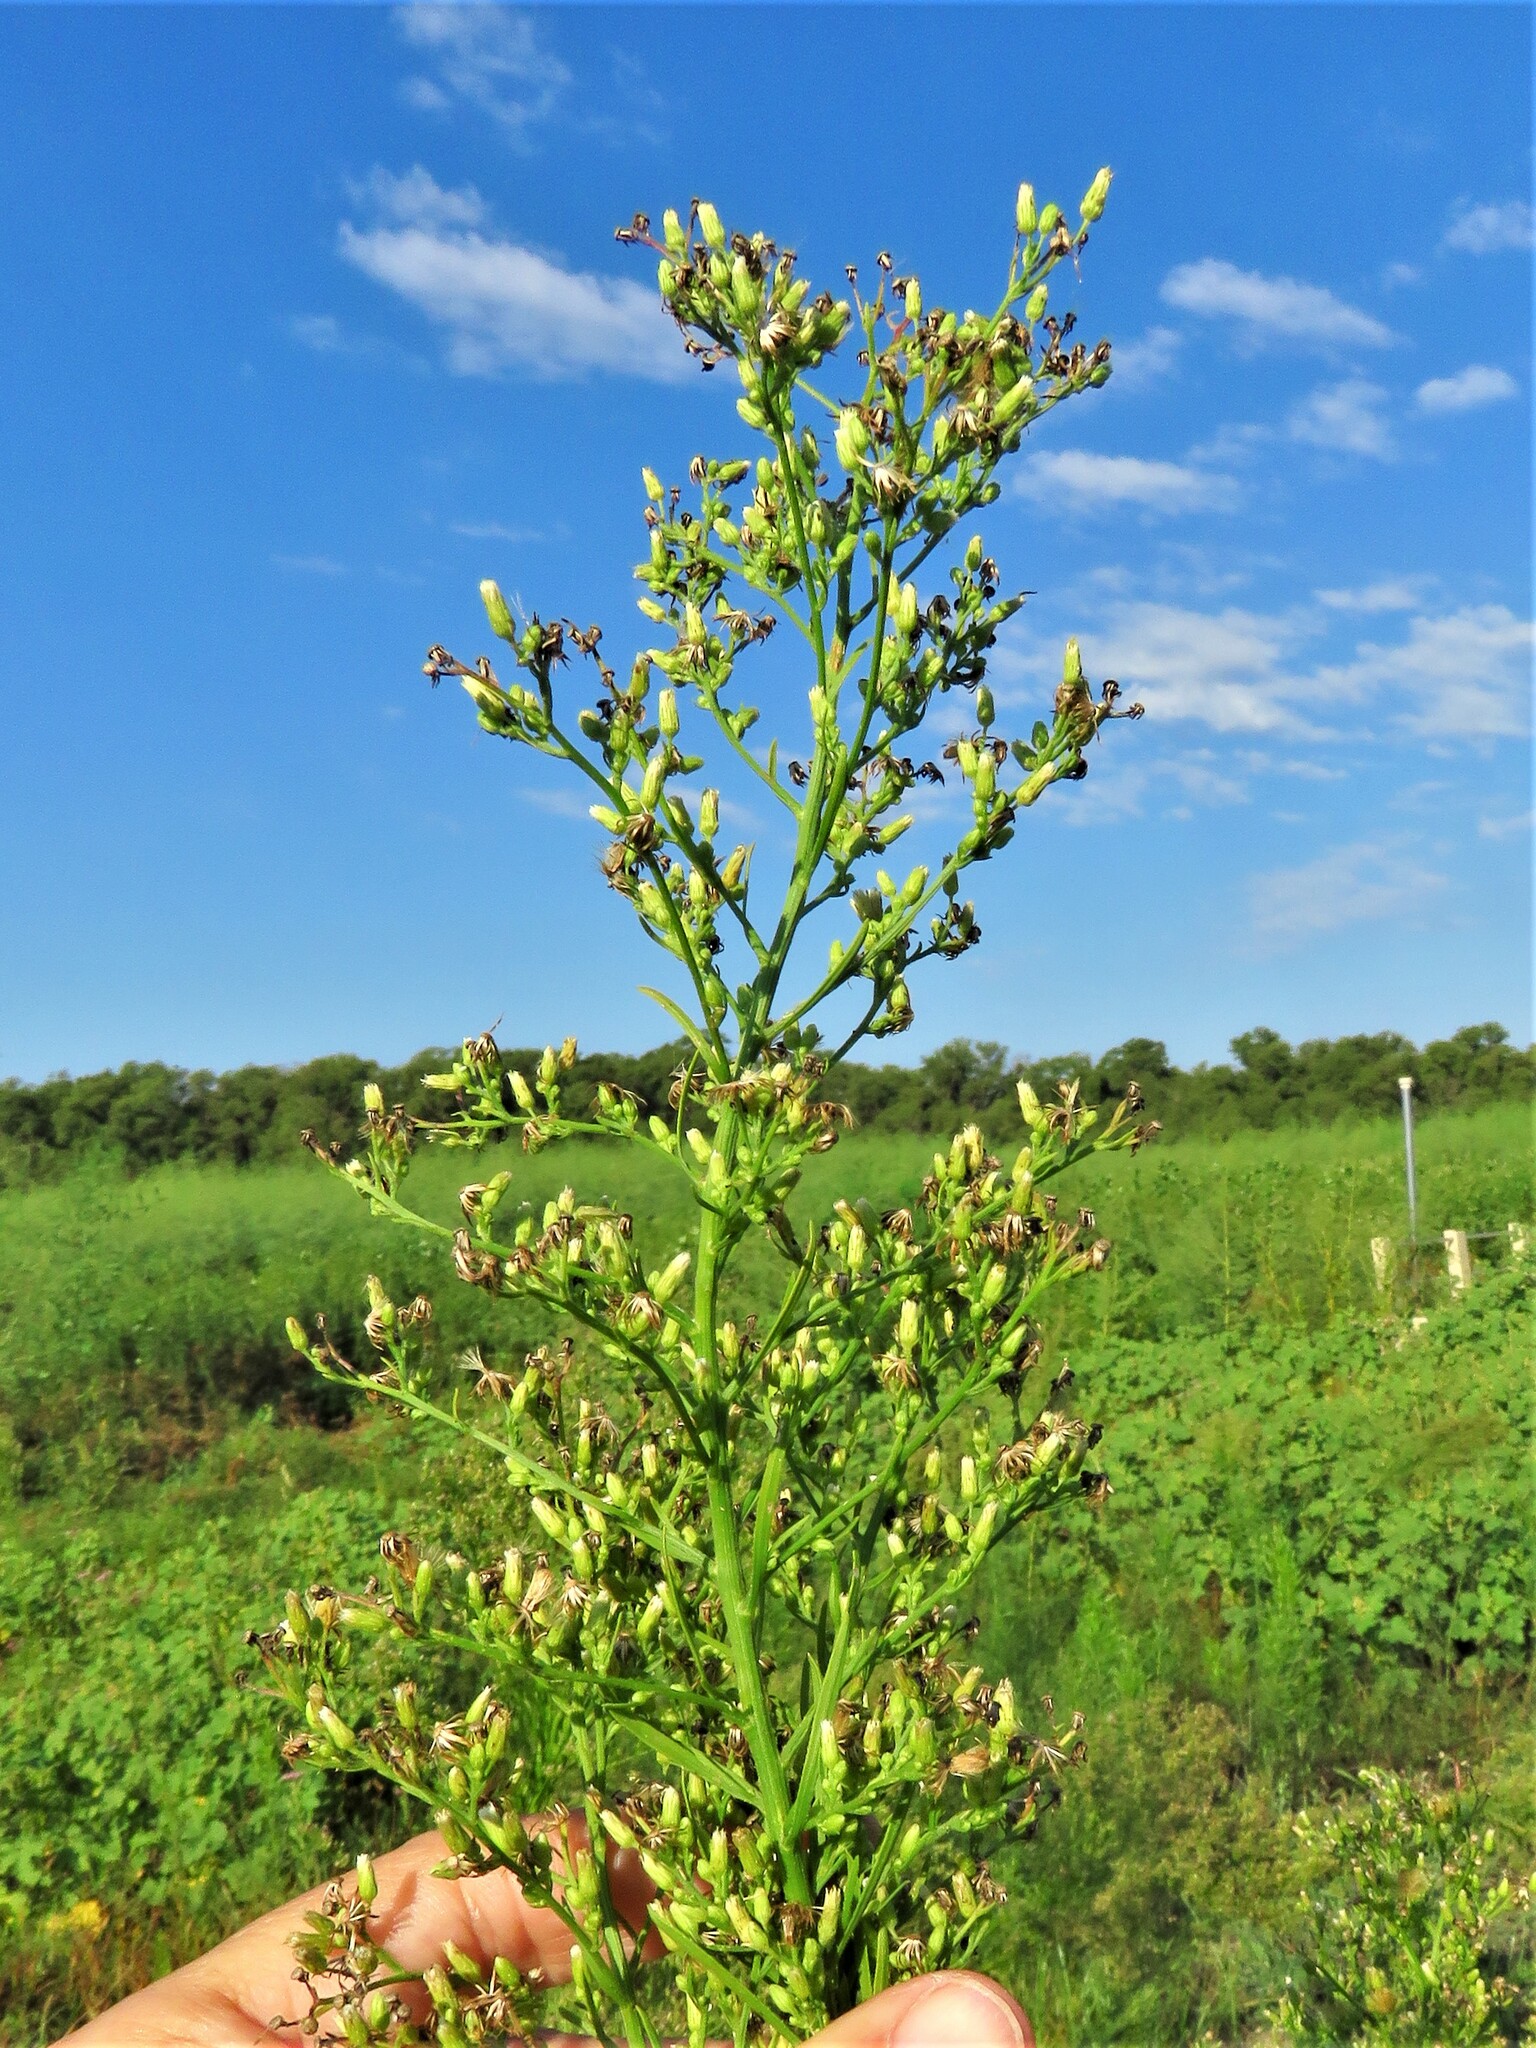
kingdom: Plantae
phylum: Tracheophyta
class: Magnoliopsida
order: Asterales
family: Asteraceae
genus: Erigeron
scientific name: Erigeron canadensis
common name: Canadian fleabane
